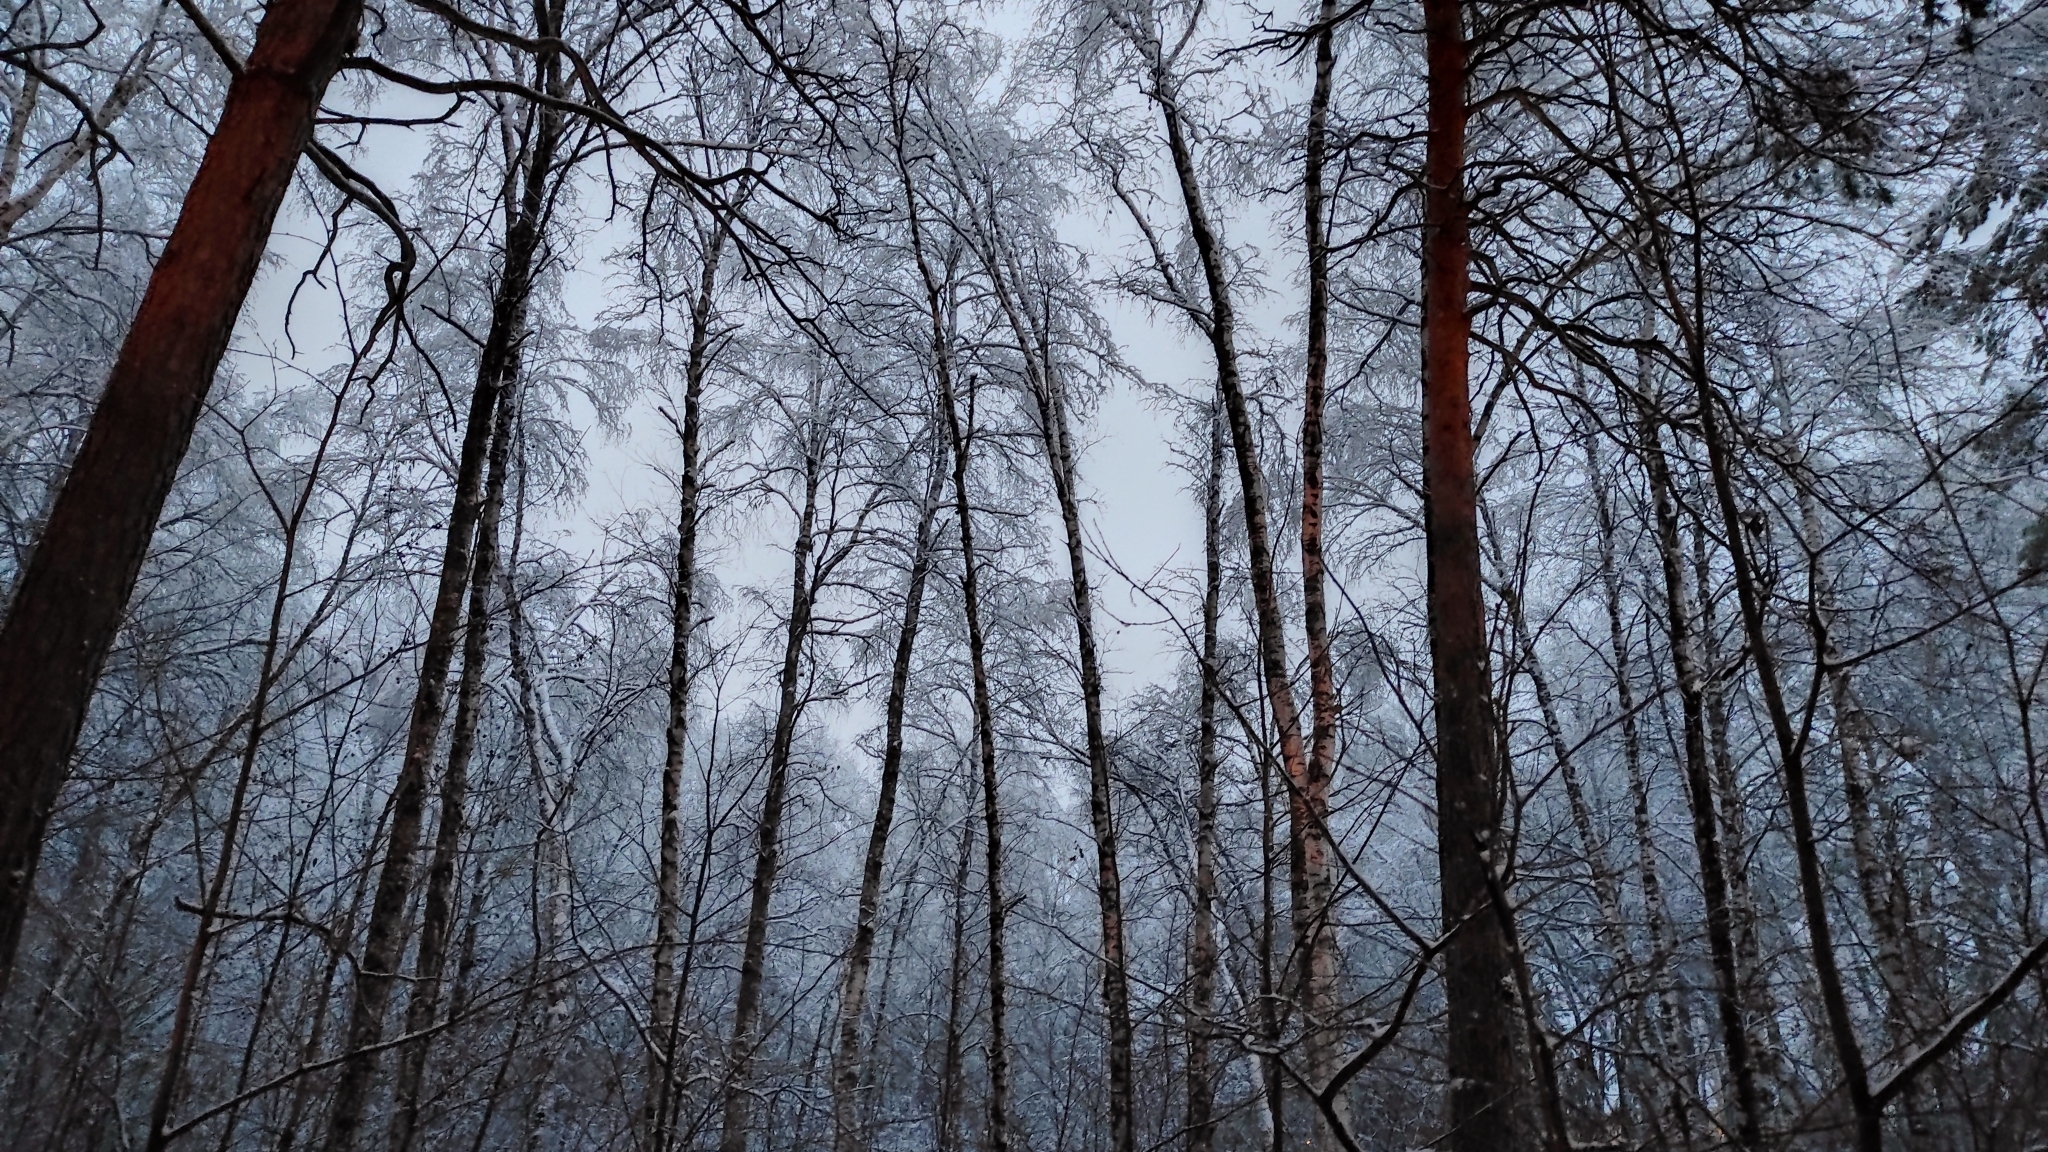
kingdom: Plantae
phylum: Tracheophyta
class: Magnoliopsida
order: Fagales
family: Betulaceae
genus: Betula
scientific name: Betula pendula
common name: Silver birch
